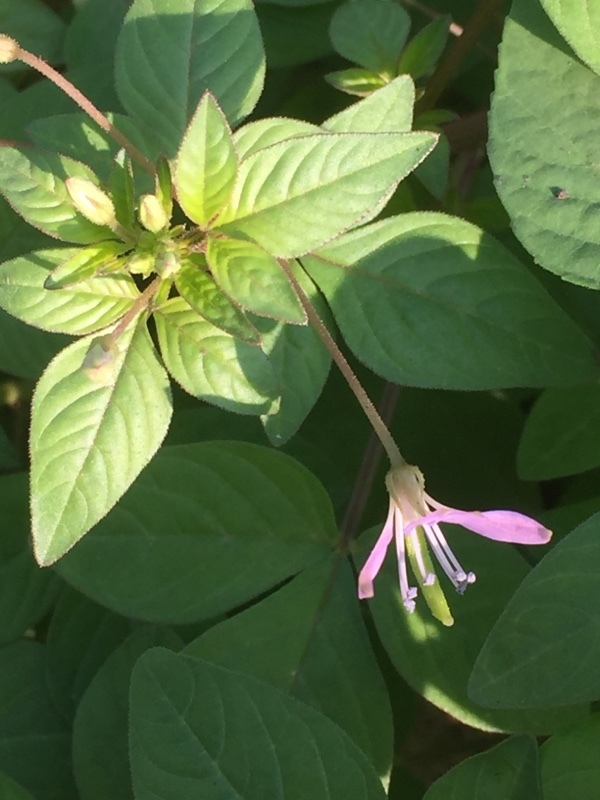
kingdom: Plantae
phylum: Tracheophyta
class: Magnoliopsida
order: Brassicales
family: Cleomaceae
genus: Sieruela
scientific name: Sieruela rutidosperma
